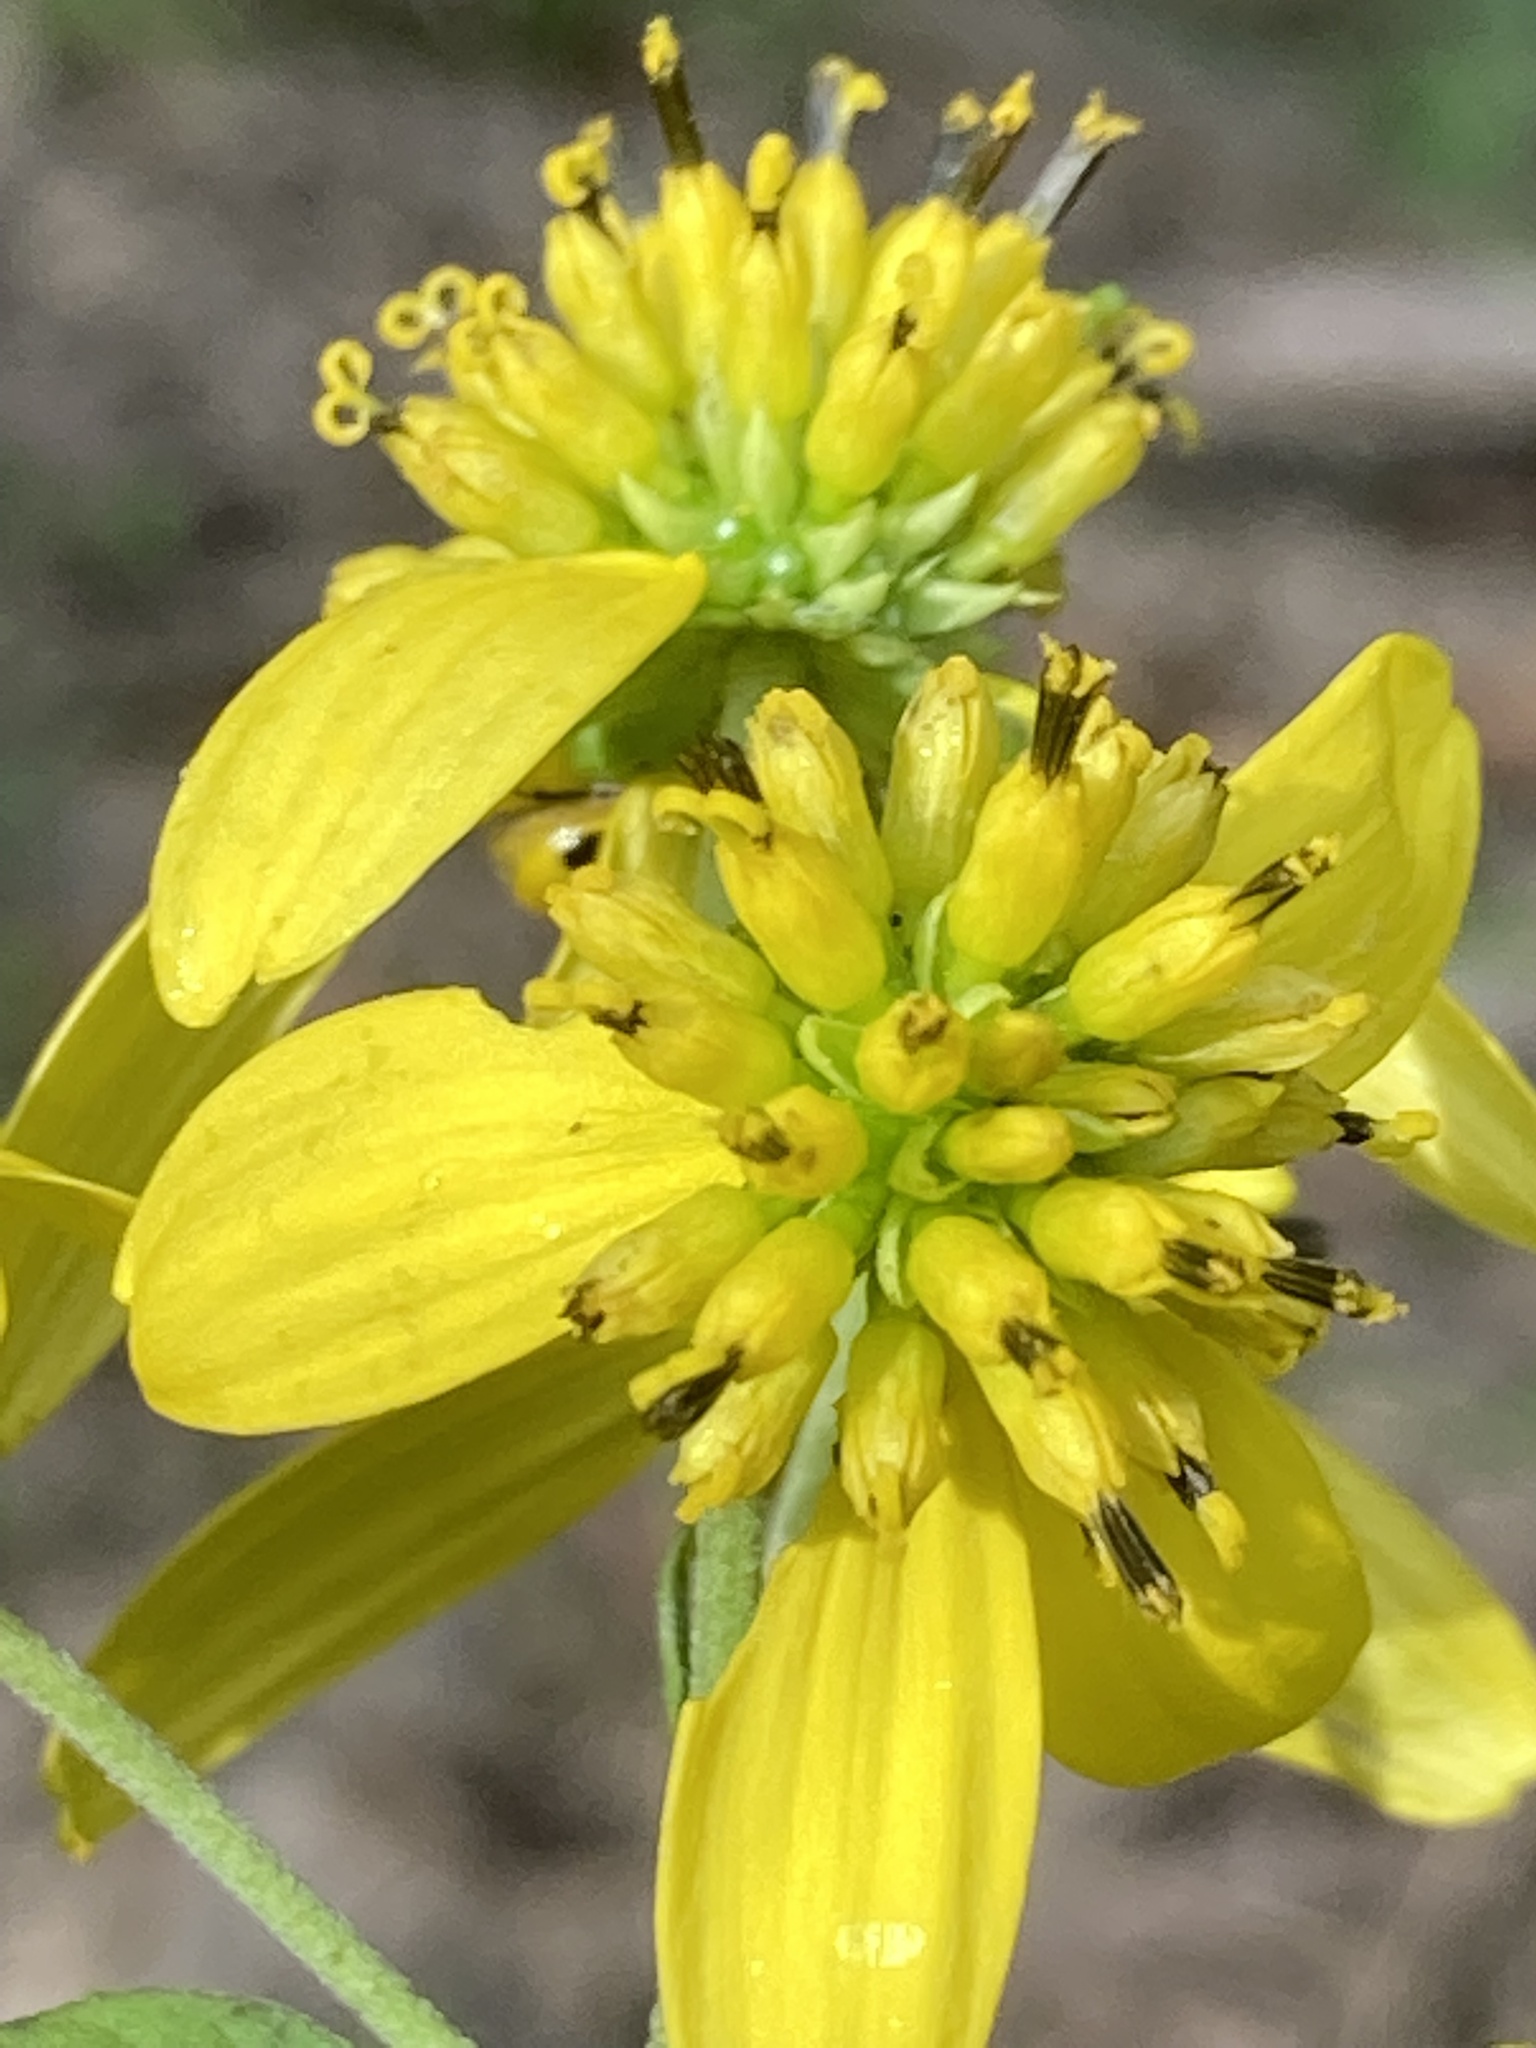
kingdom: Plantae
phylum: Tracheophyta
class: Magnoliopsida
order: Asterales
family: Asteraceae
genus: Verbesina
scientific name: Verbesina alternifolia
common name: Wingstem
